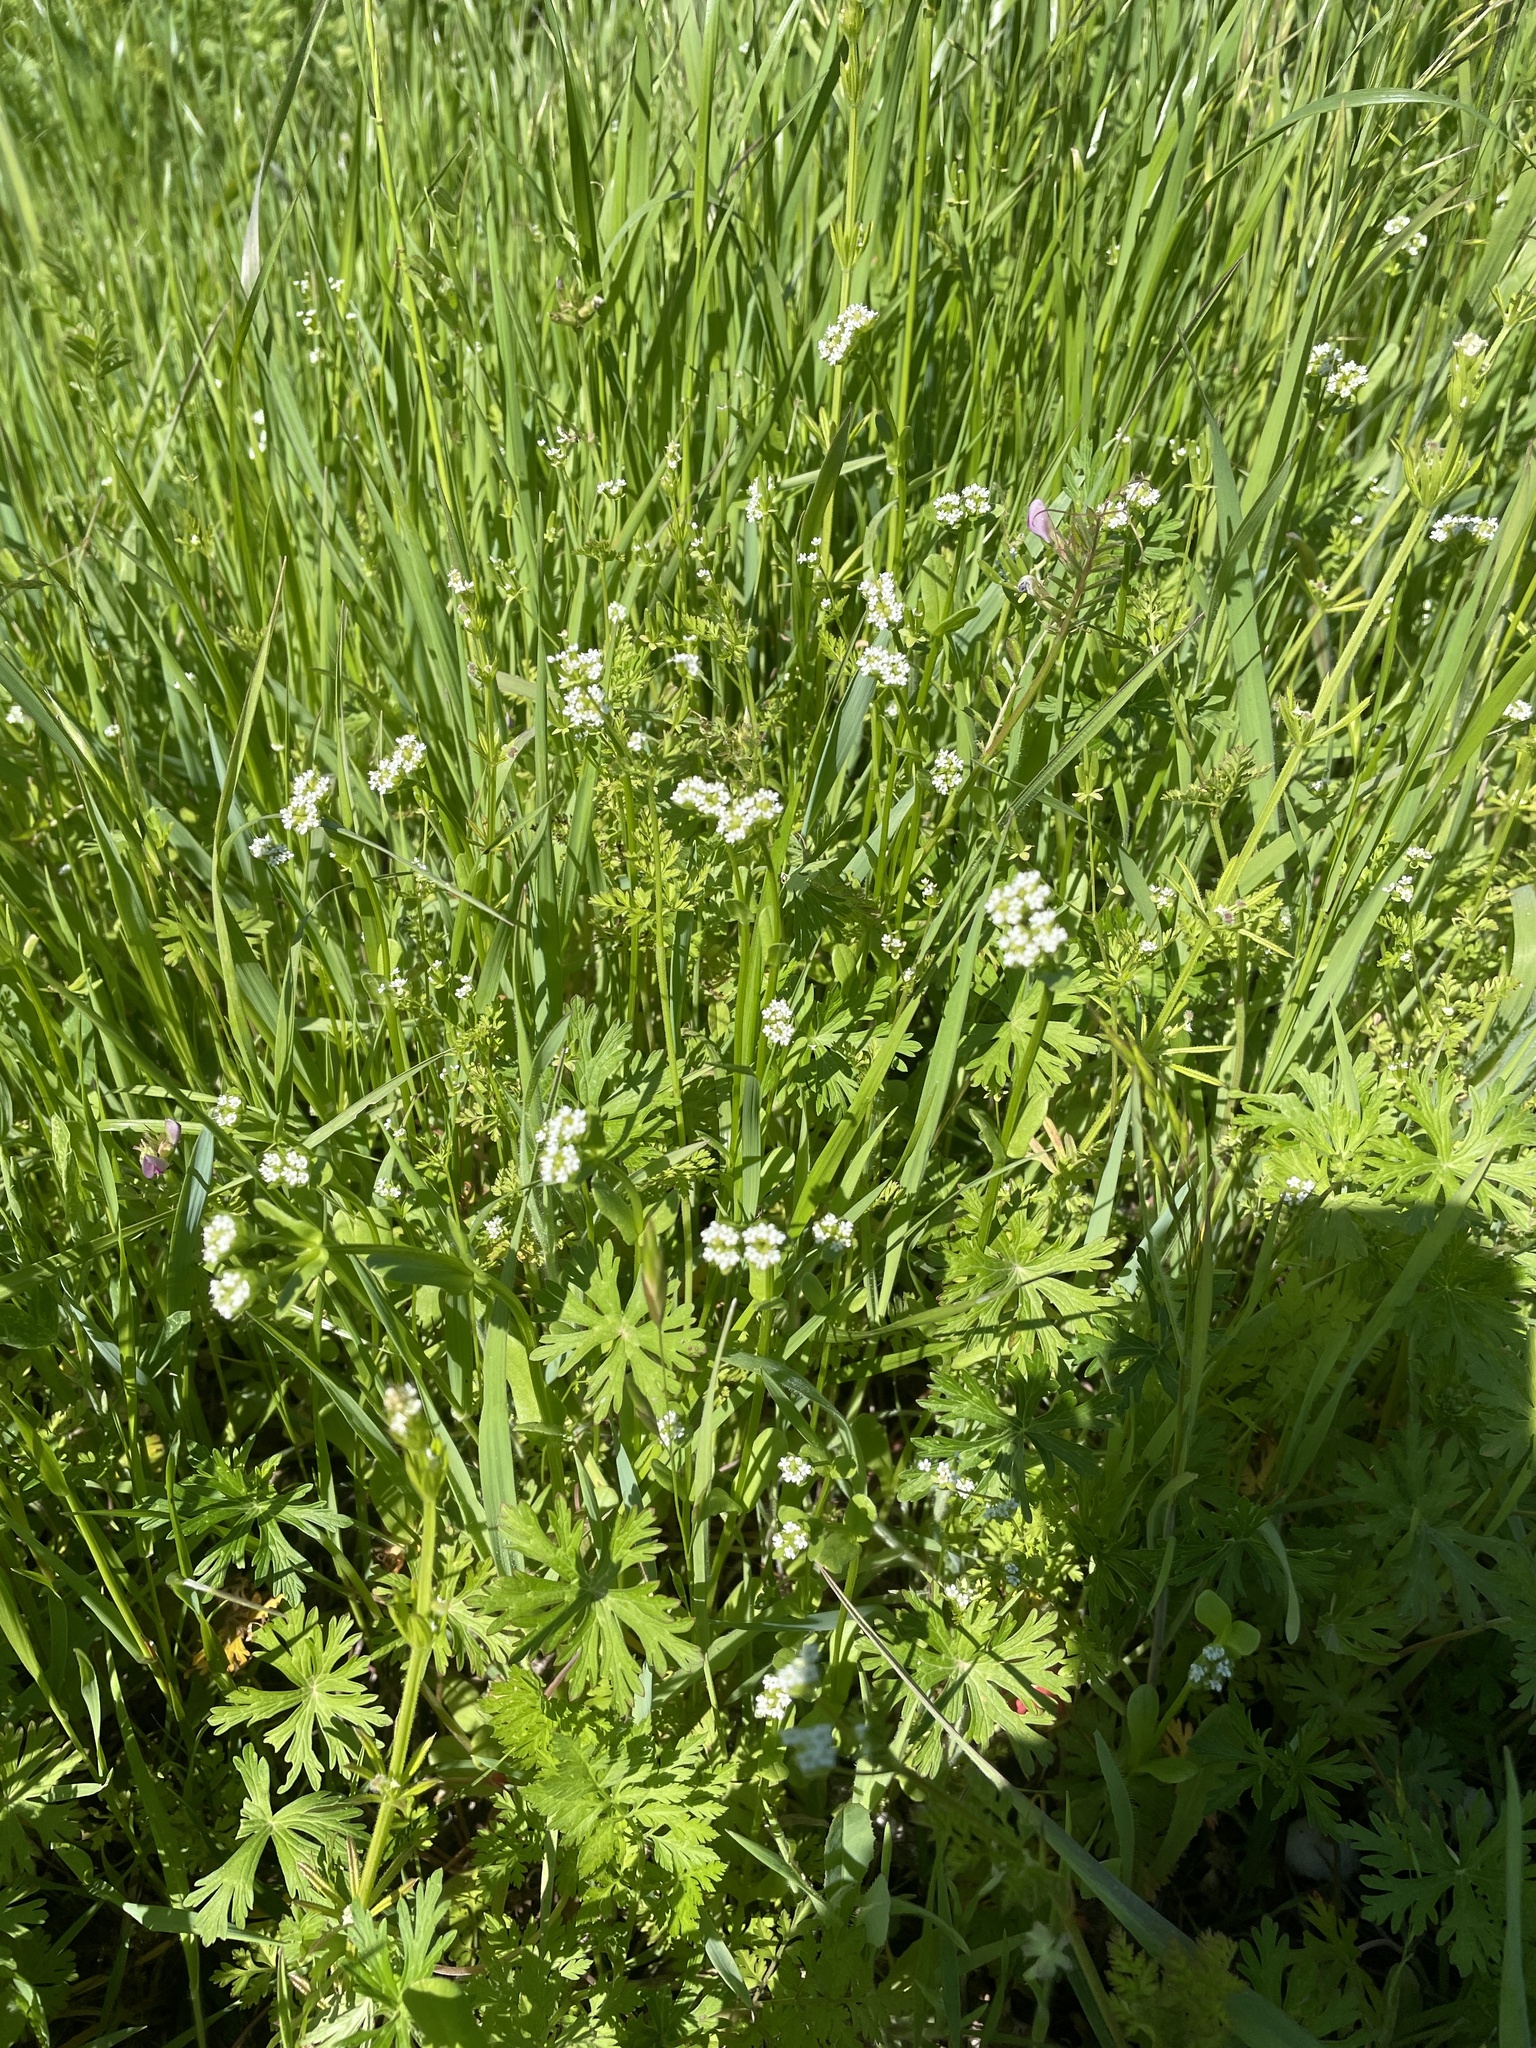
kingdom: Plantae
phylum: Tracheophyta
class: Magnoliopsida
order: Dipsacales
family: Caprifoliaceae
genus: Valerianella
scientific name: Valerianella radiata
